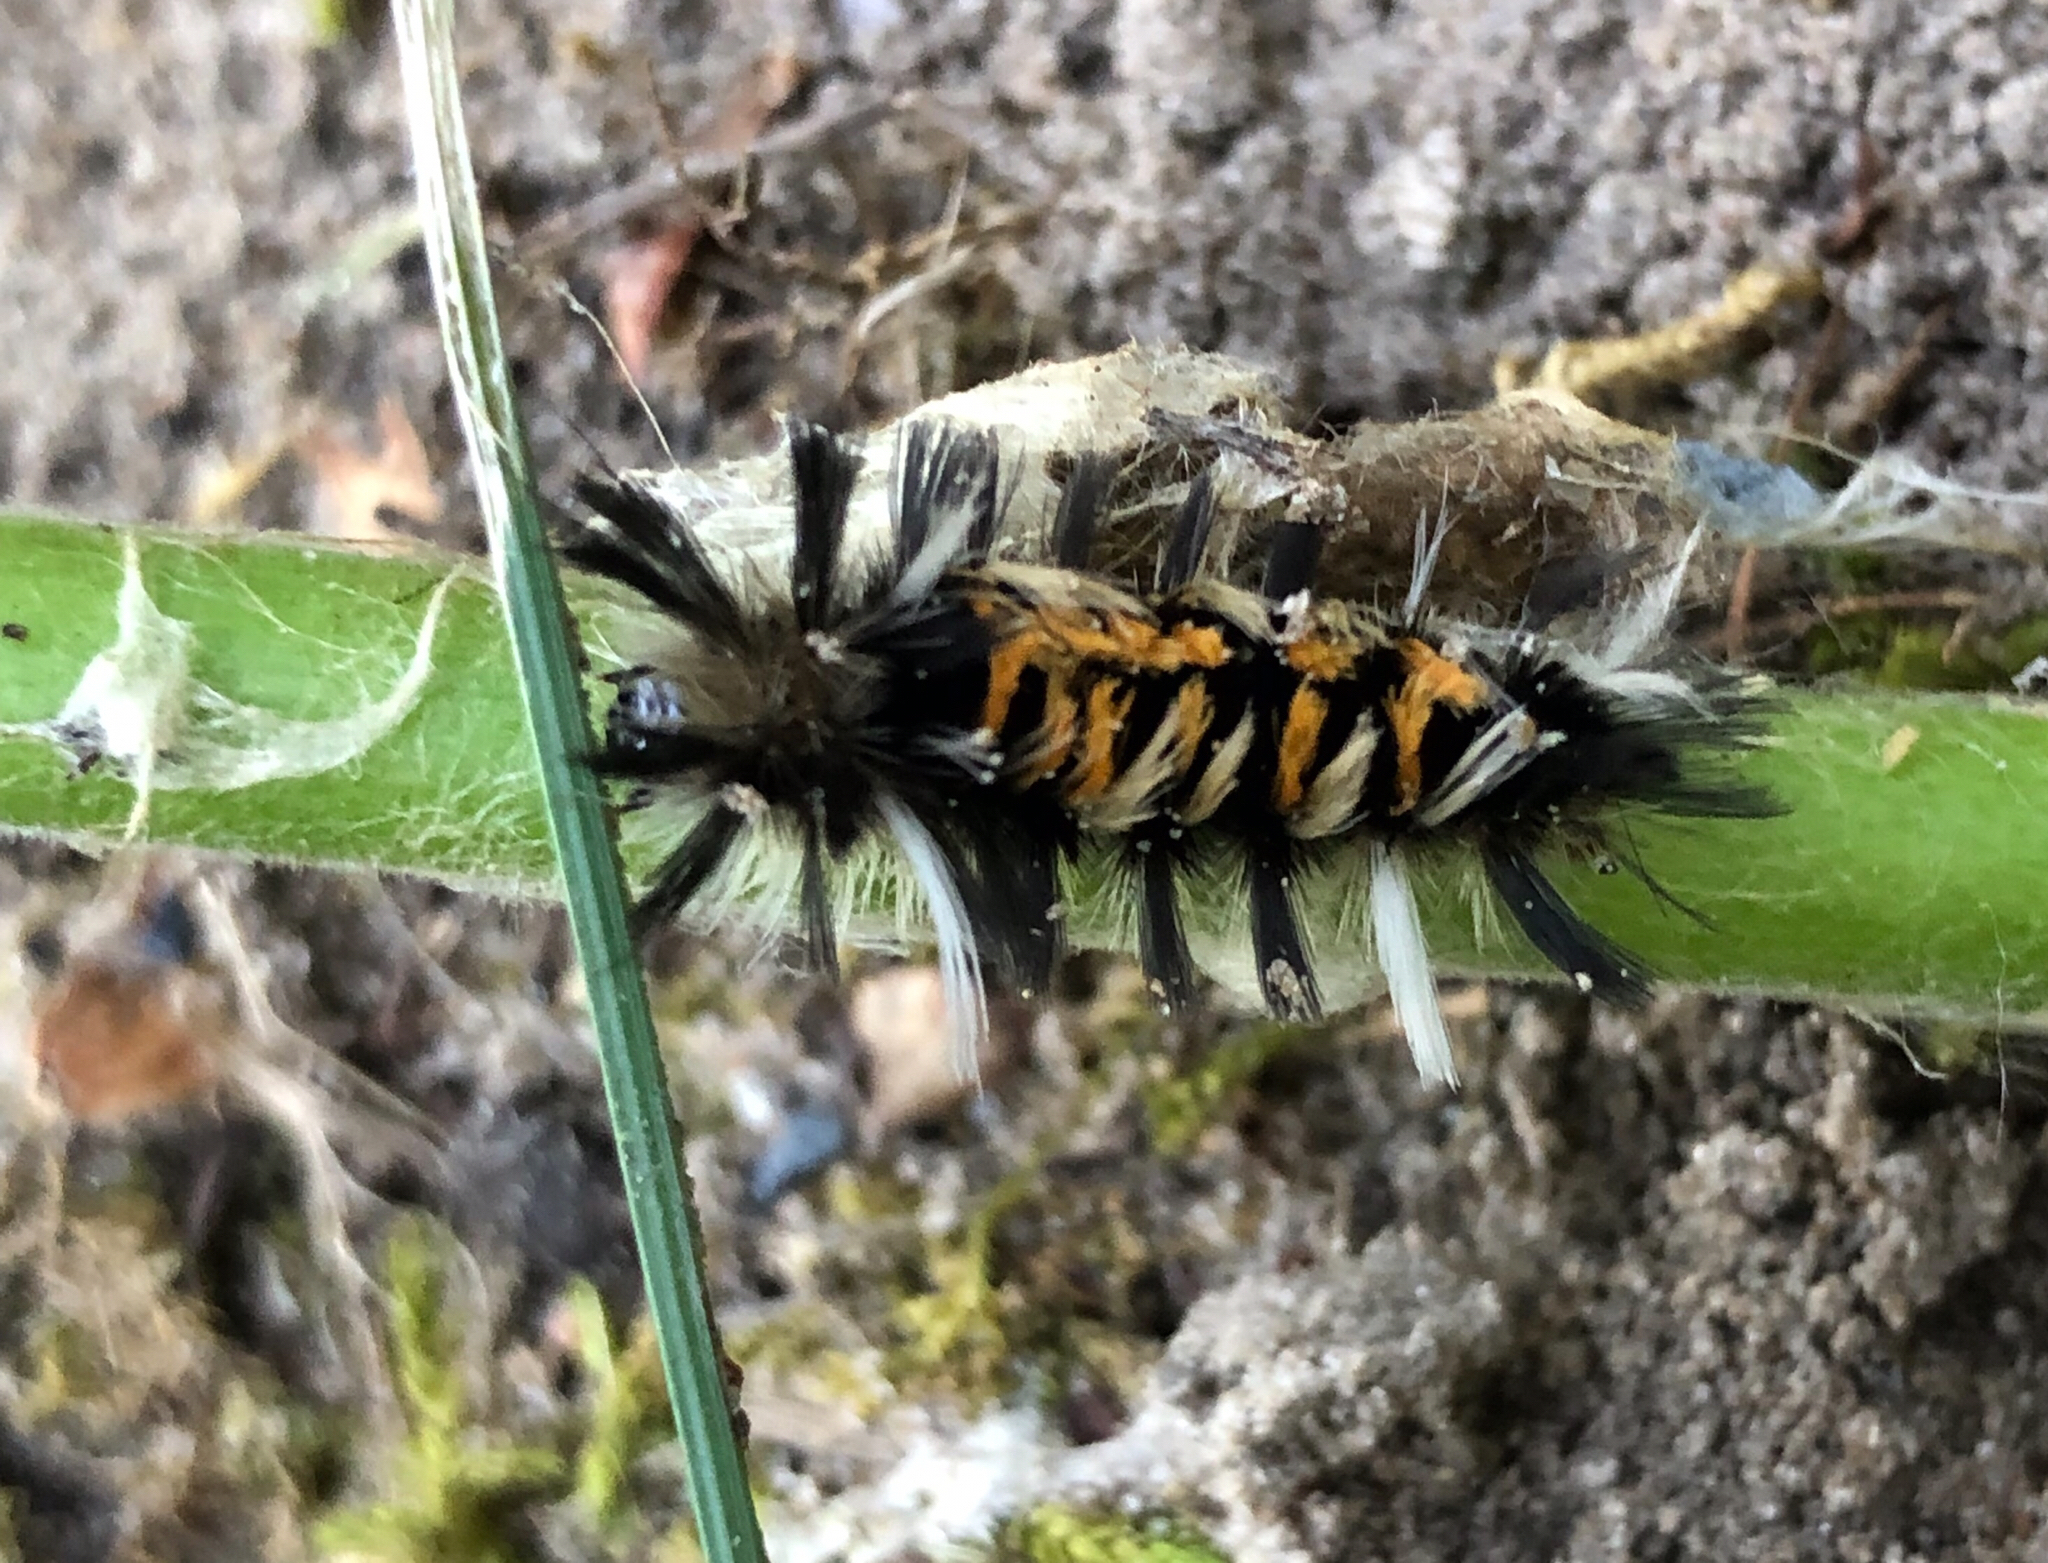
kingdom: Animalia
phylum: Arthropoda
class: Insecta
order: Lepidoptera
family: Erebidae
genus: Euchaetes
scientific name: Euchaetes egle
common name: Milkweed tussock moth
